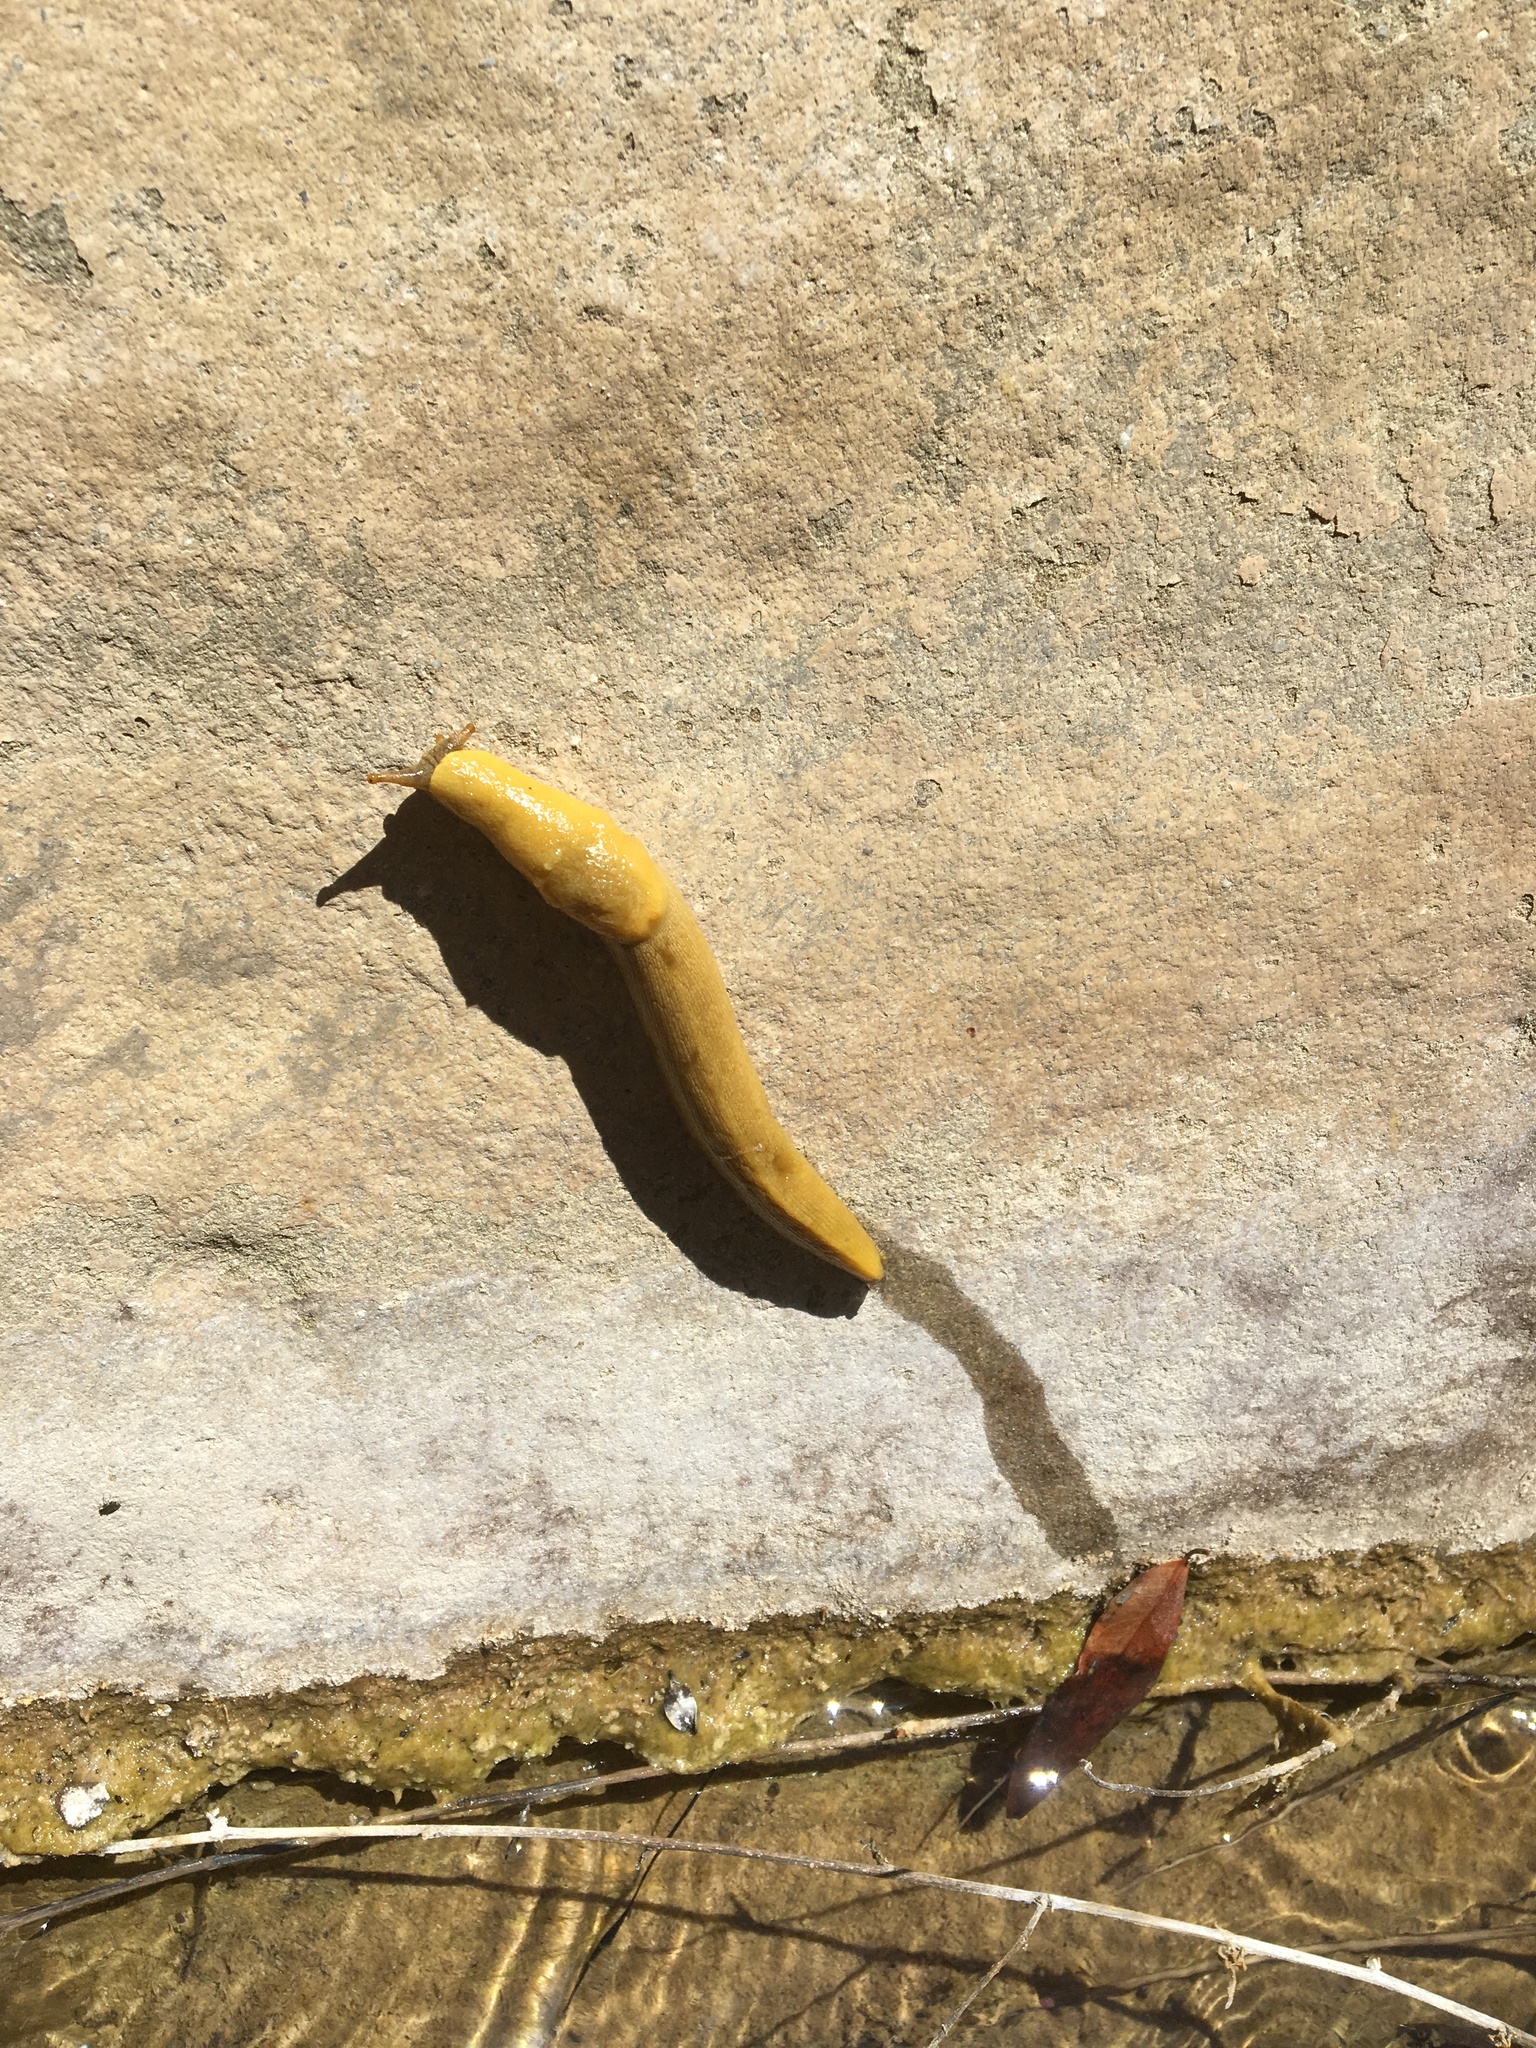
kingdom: Animalia
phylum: Mollusca
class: Gastropoda
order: Stylommatophora
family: Ariolimacidae
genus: Ariolimax
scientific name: Ariolimax stramineus
